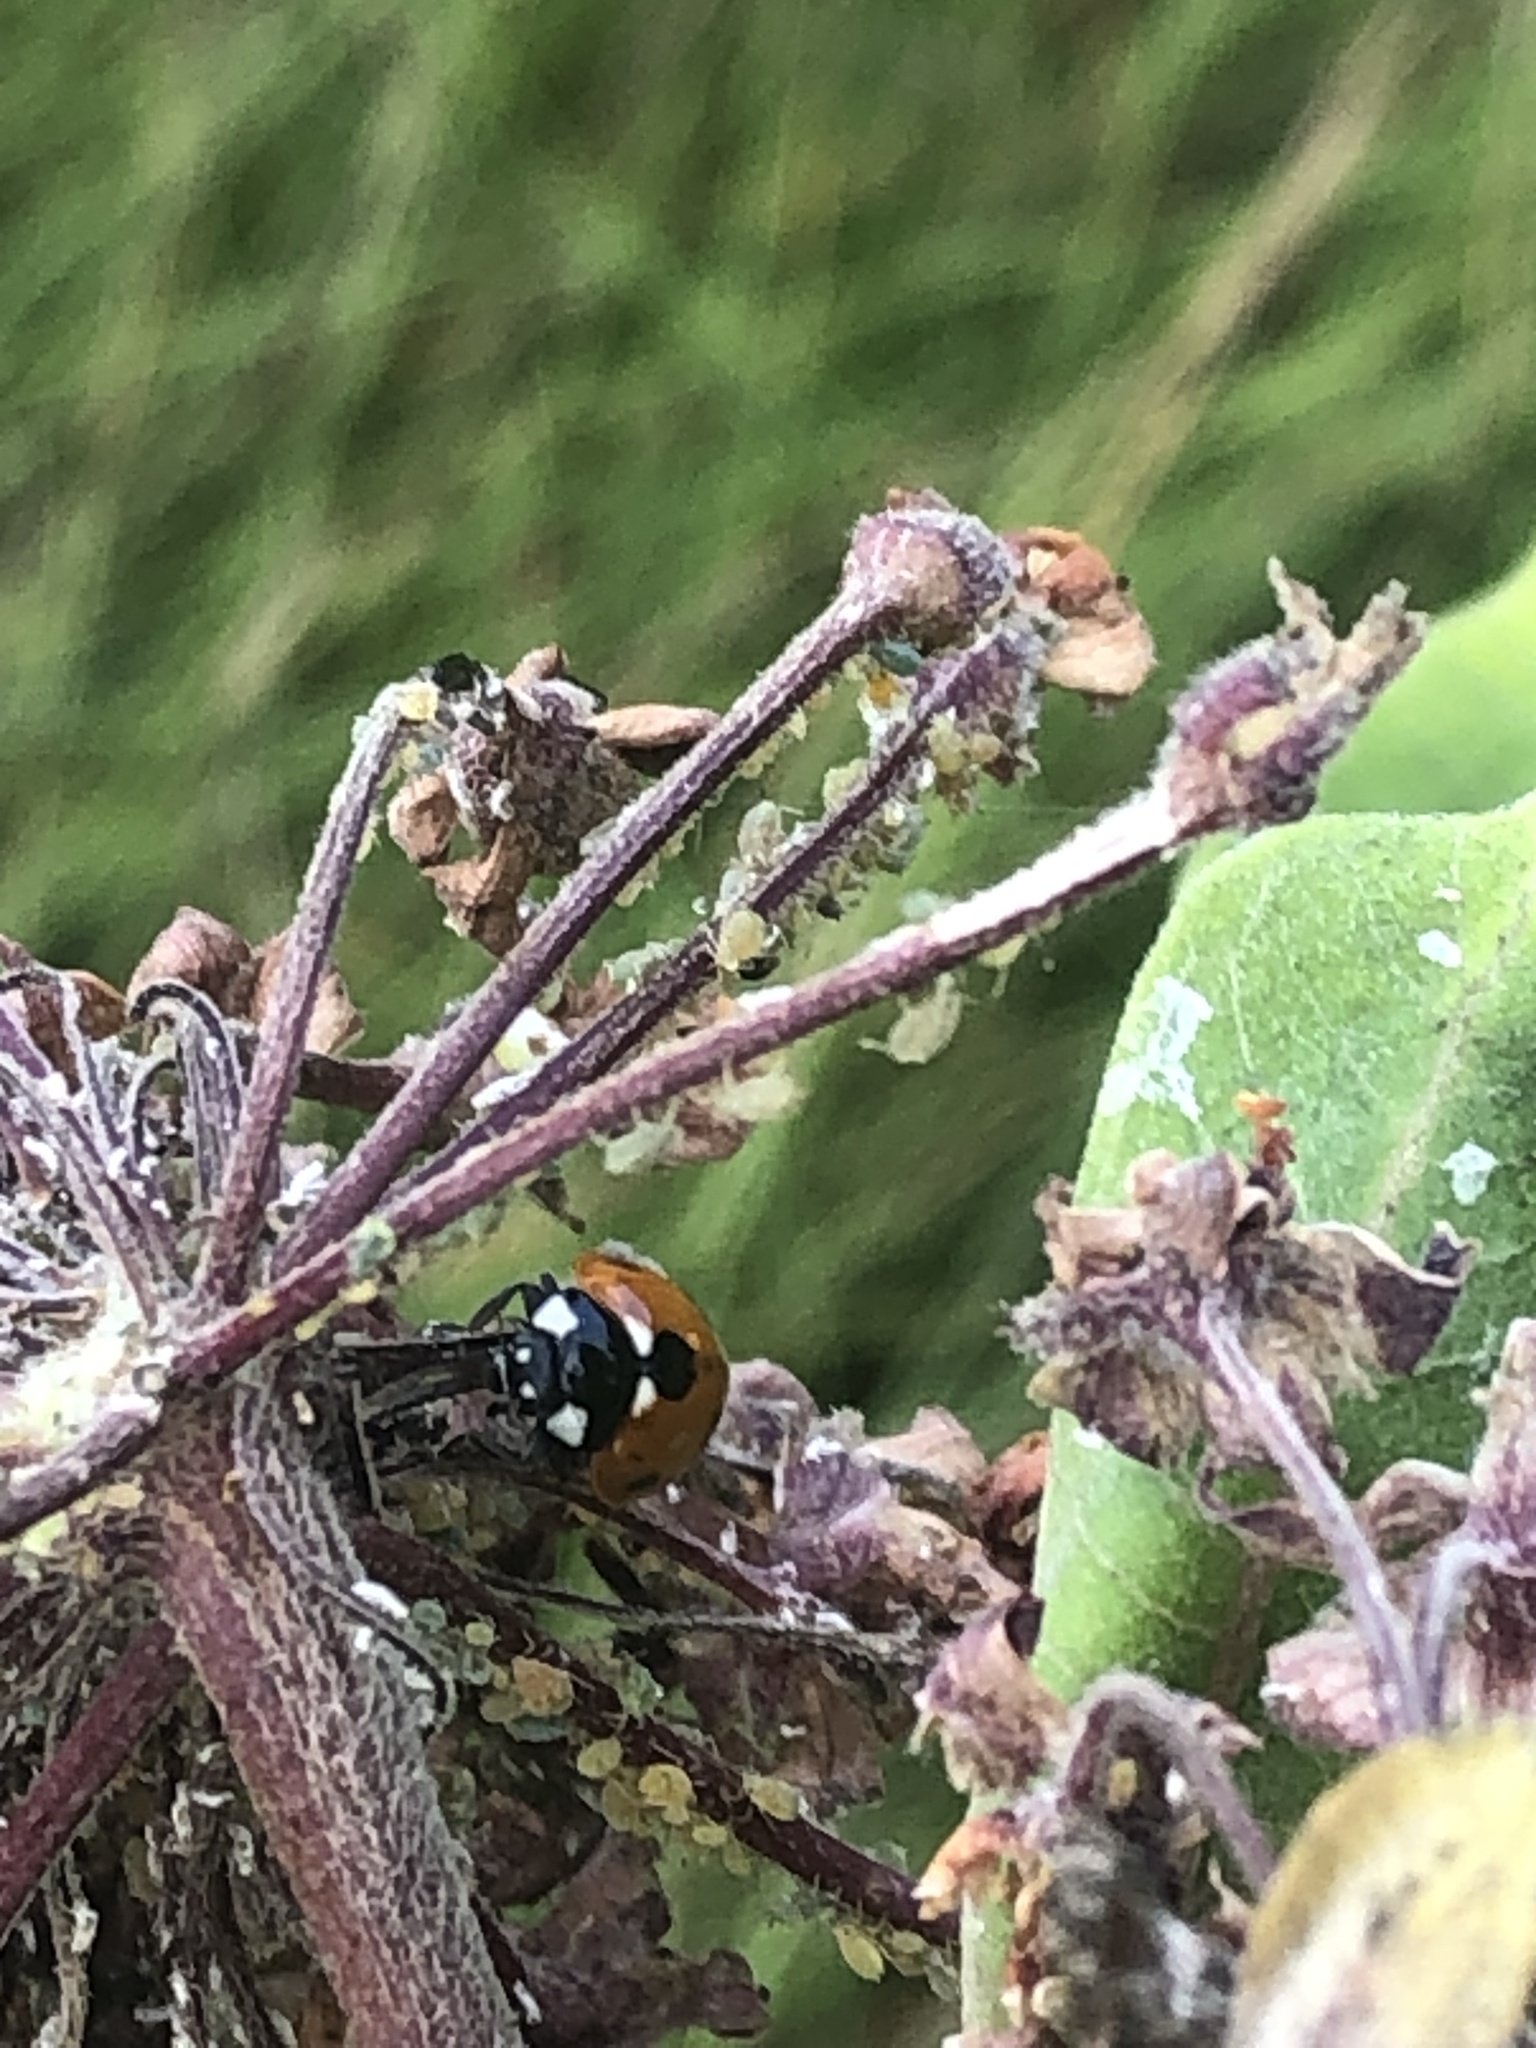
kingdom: Animalia
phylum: Arthropoda
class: Insecta
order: Coleoptera
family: Coccinellidae
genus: Coccinella
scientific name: Coccinella septempunctata
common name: Sevenspotted lady beetle
